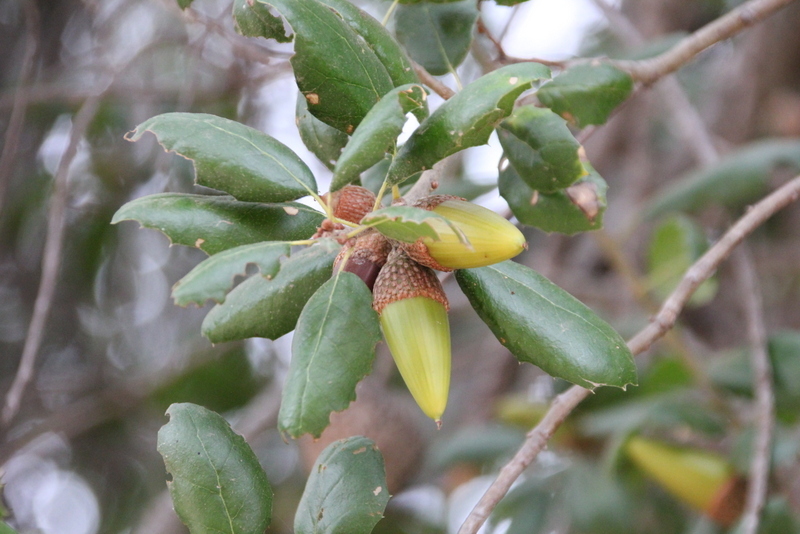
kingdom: Plantae
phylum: Tracheophyta
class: Magnoliopsida
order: Fagales
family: Fagaceae
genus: Quercus
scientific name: Quercus agrifolia
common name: California live oak
